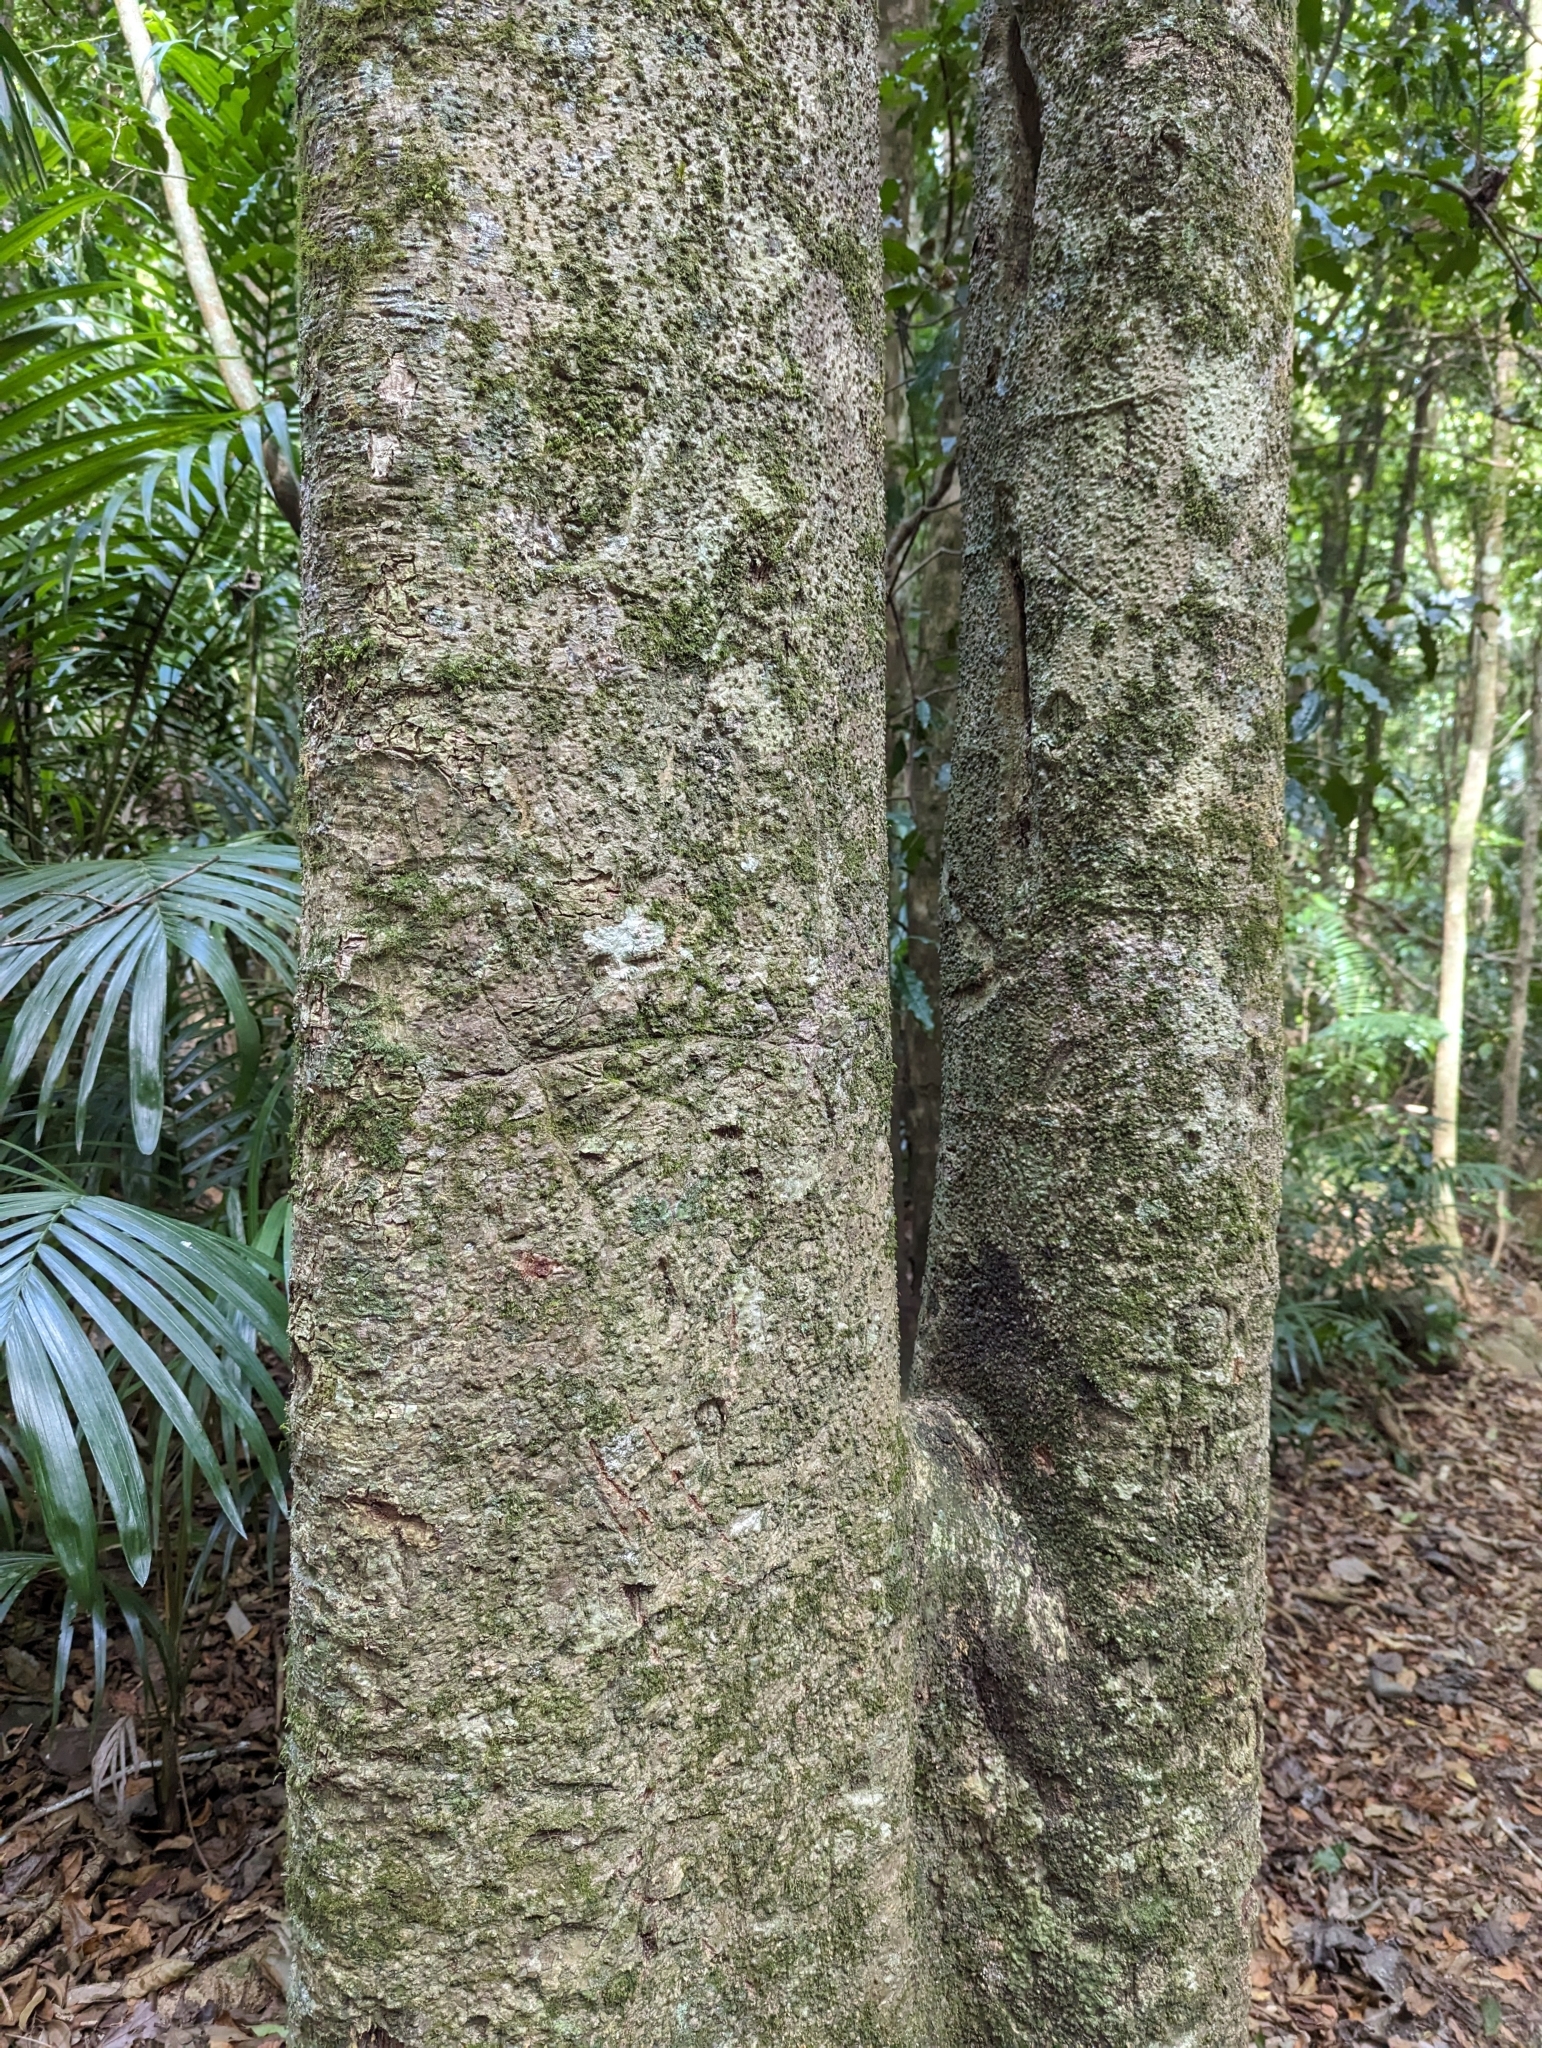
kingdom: Plantae
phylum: Tracheophyta
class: Magnoliopsida
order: Rosales
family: Urticaceae
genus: Dendrocnide
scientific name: Dendrocnide excelsa
